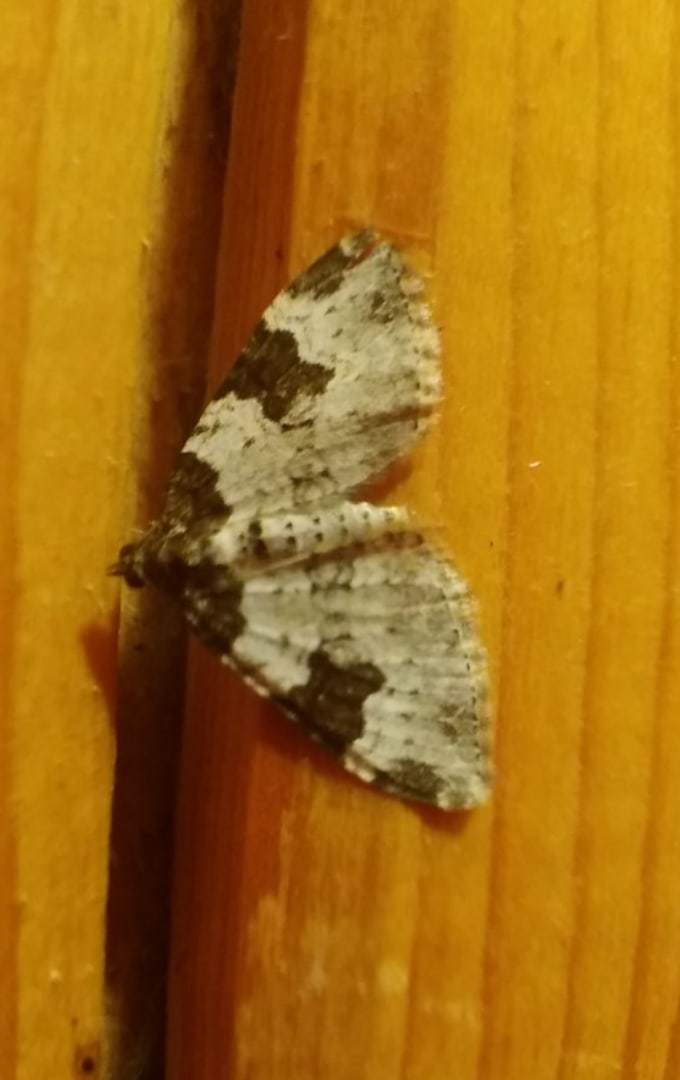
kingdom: Animalia
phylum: Arthropoda
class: Insecta
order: Lepidoptera
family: Geometridae
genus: Xanthorhoe
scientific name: Xanthorhoe fluctuata
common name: Garden carpet
